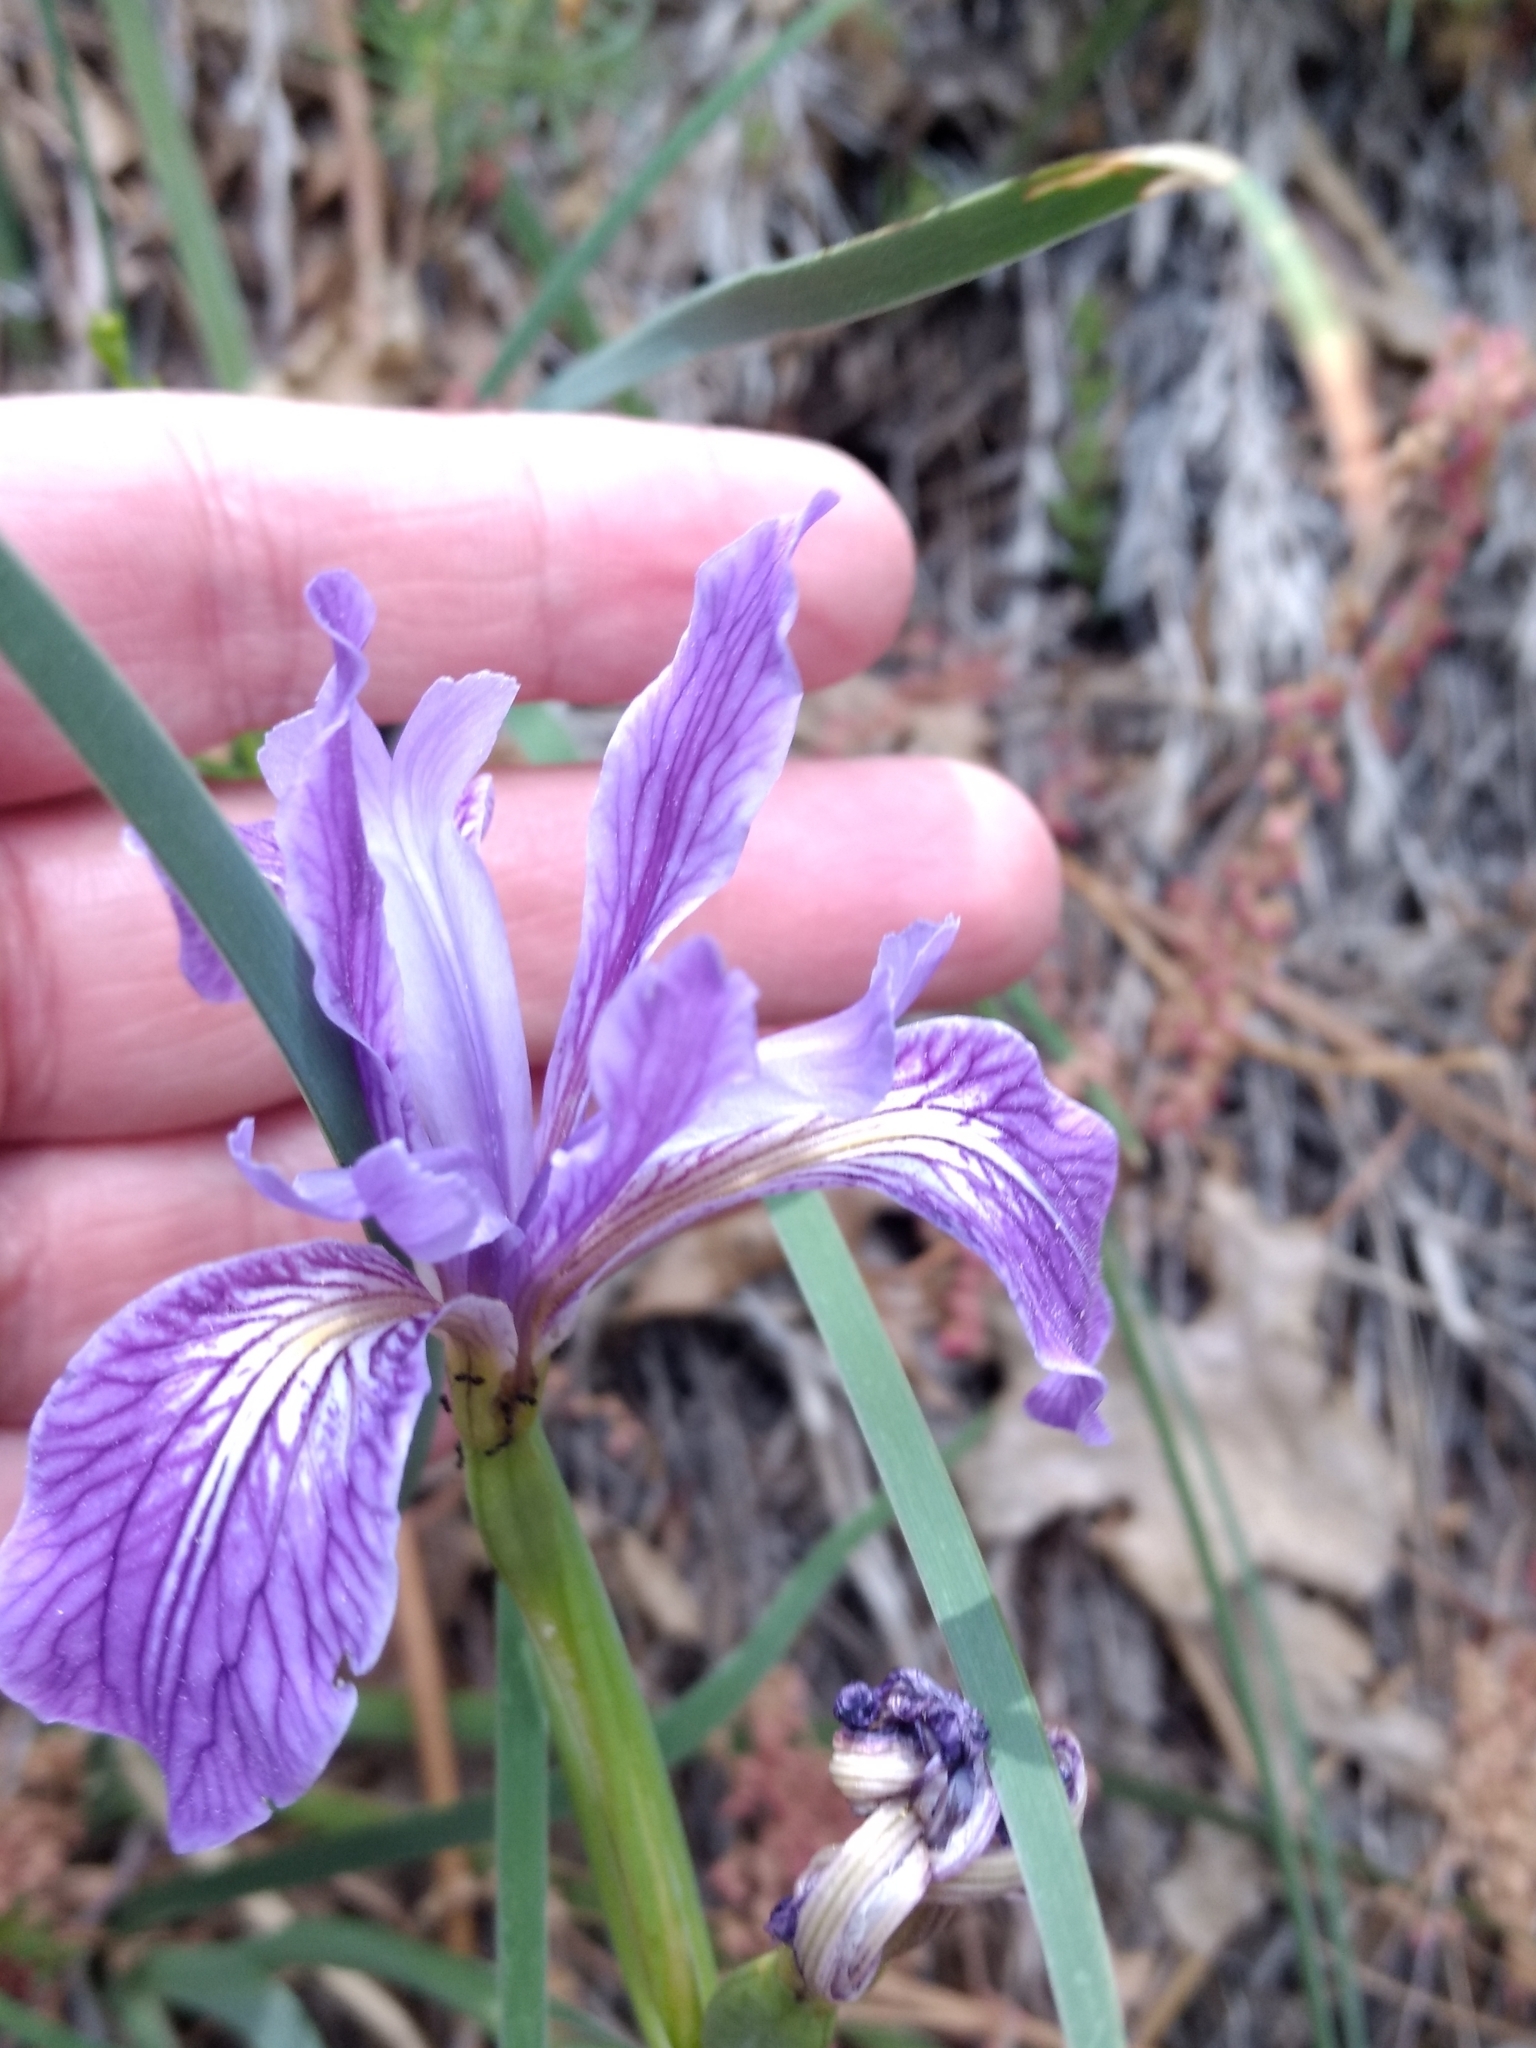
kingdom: Plantae
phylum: Tracheophyta
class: Liliopsida
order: Asparagales
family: Iridaceae
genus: Iris
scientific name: Iris hartwegii
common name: Sierra iris
